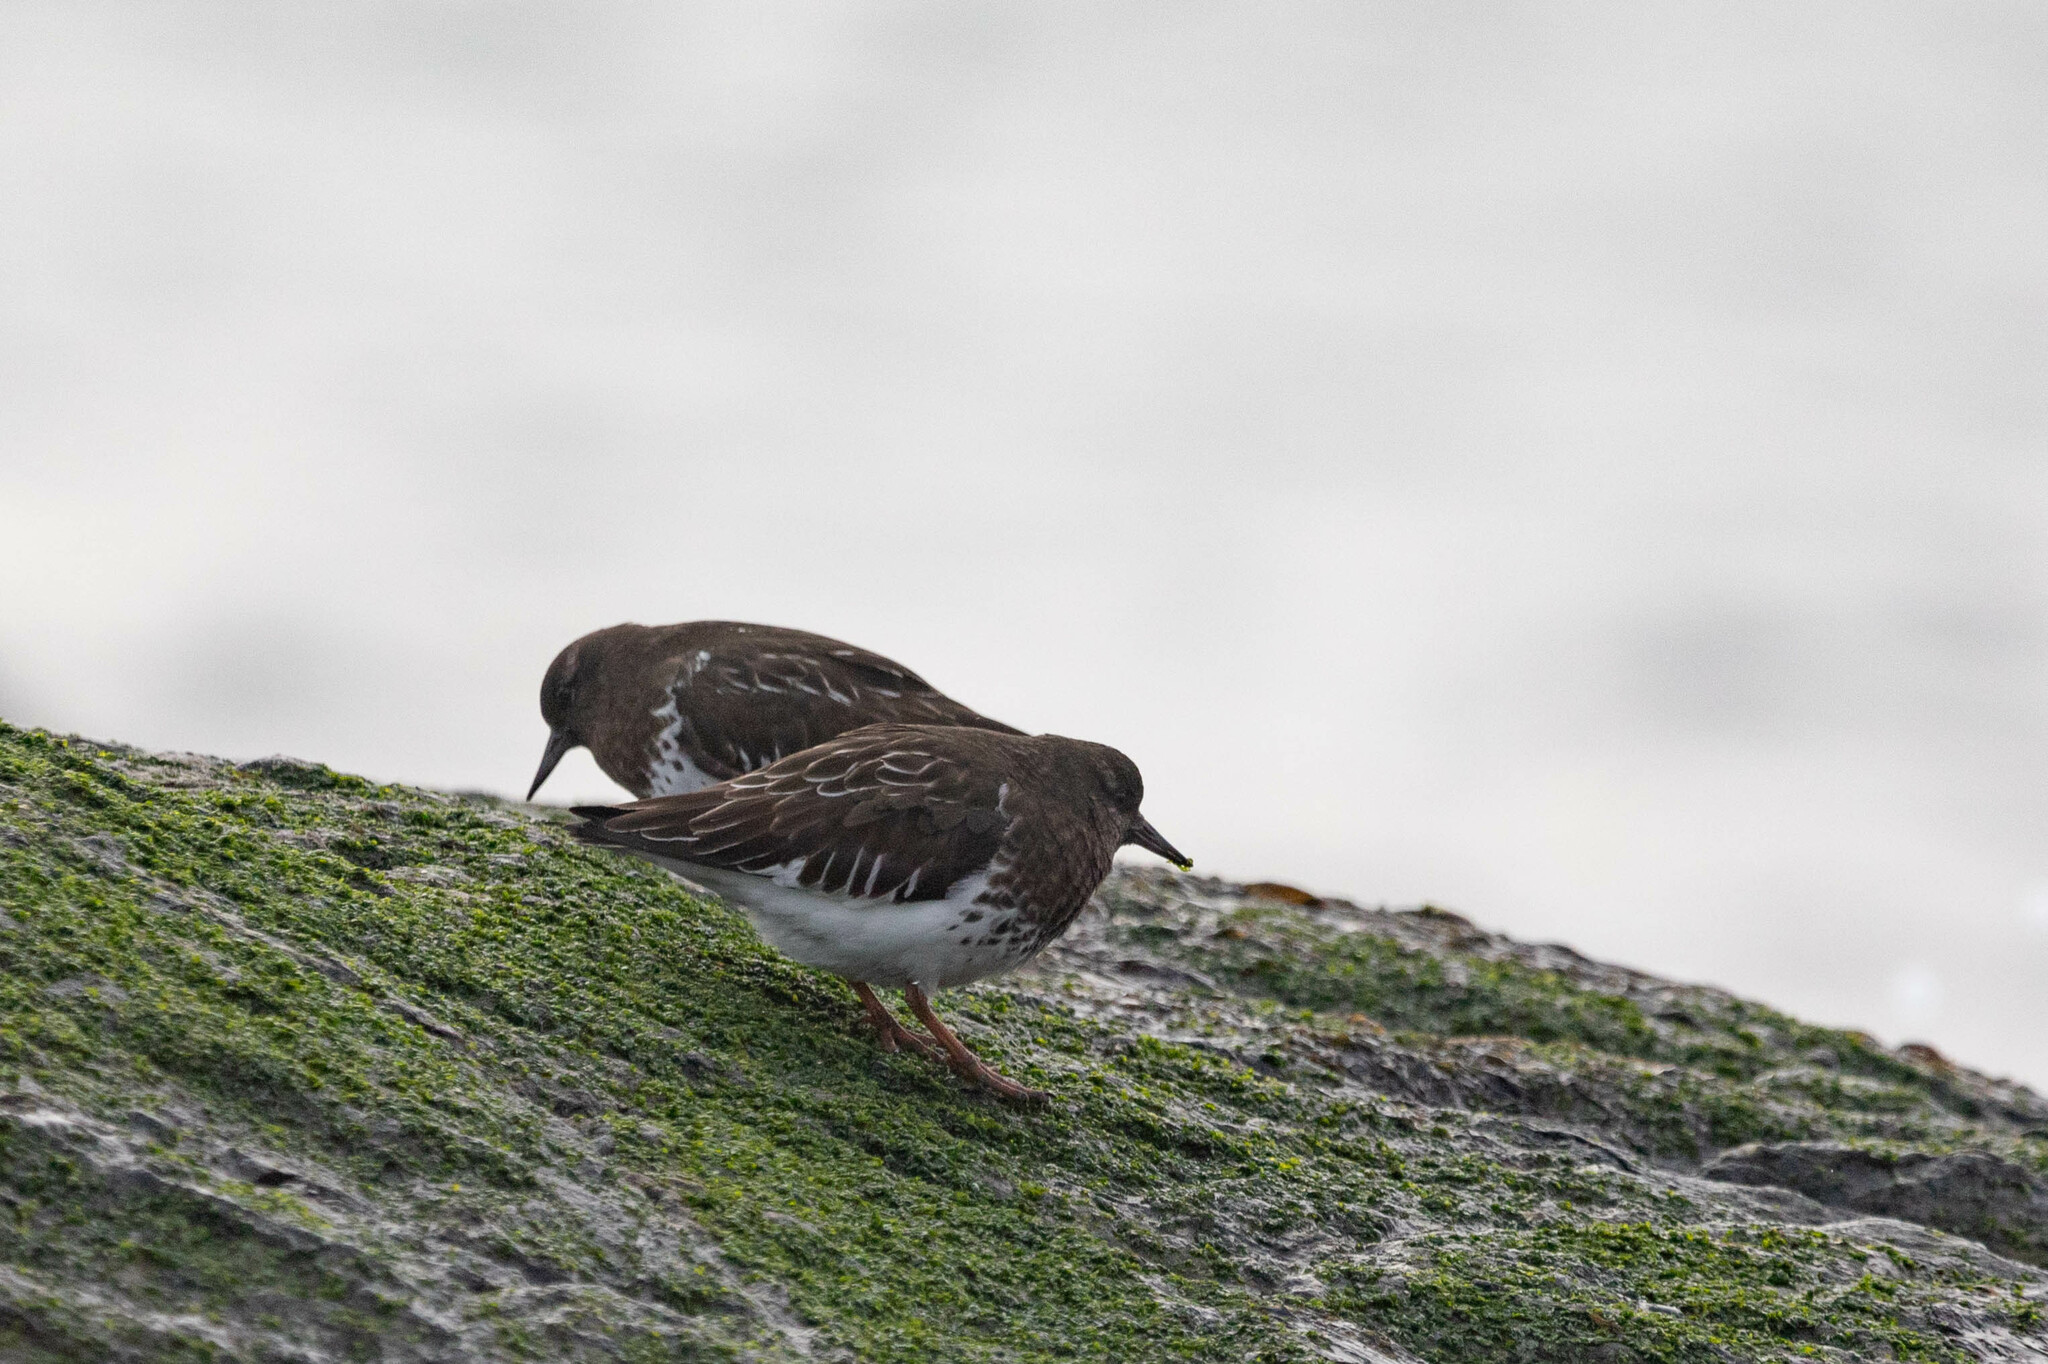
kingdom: Animalia
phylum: Chordata
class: Aves
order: Charadriiformes
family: Scolopacidae
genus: Arenaria
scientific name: Arenaria melanocephala
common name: Black turnstone
